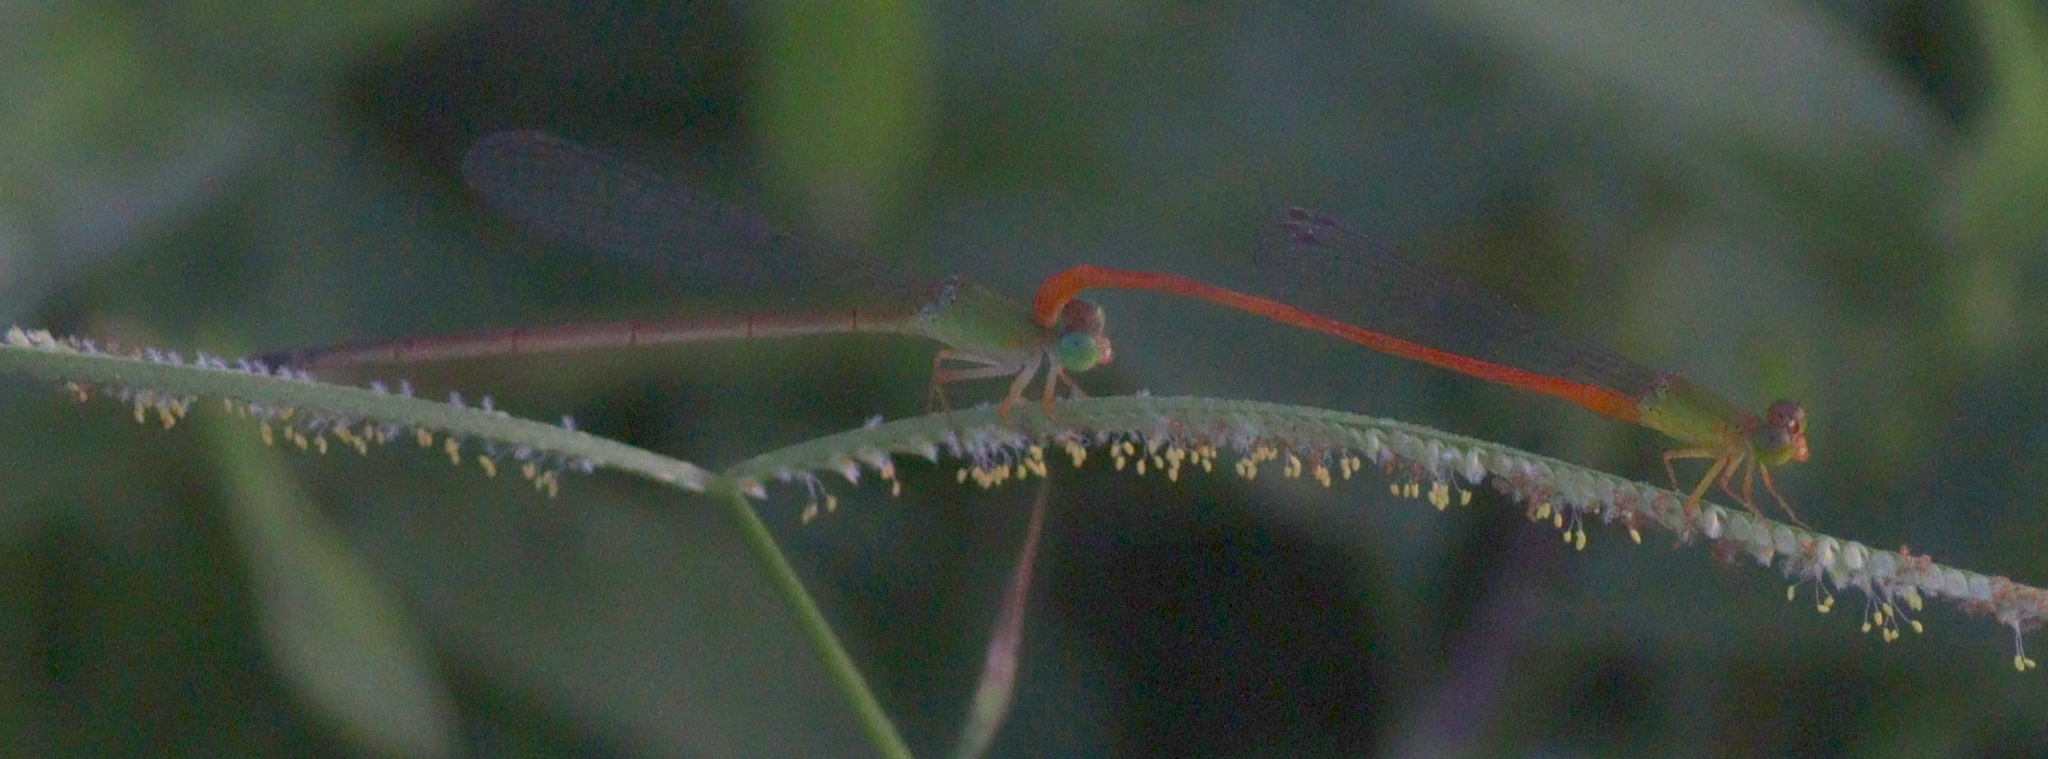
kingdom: Animalia
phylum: Arthropoda
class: Insecta
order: Odonata
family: Coenagrionidae
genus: Ceriagrion
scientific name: Ceriagrion auranticum
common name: Orange-tailed sprite
